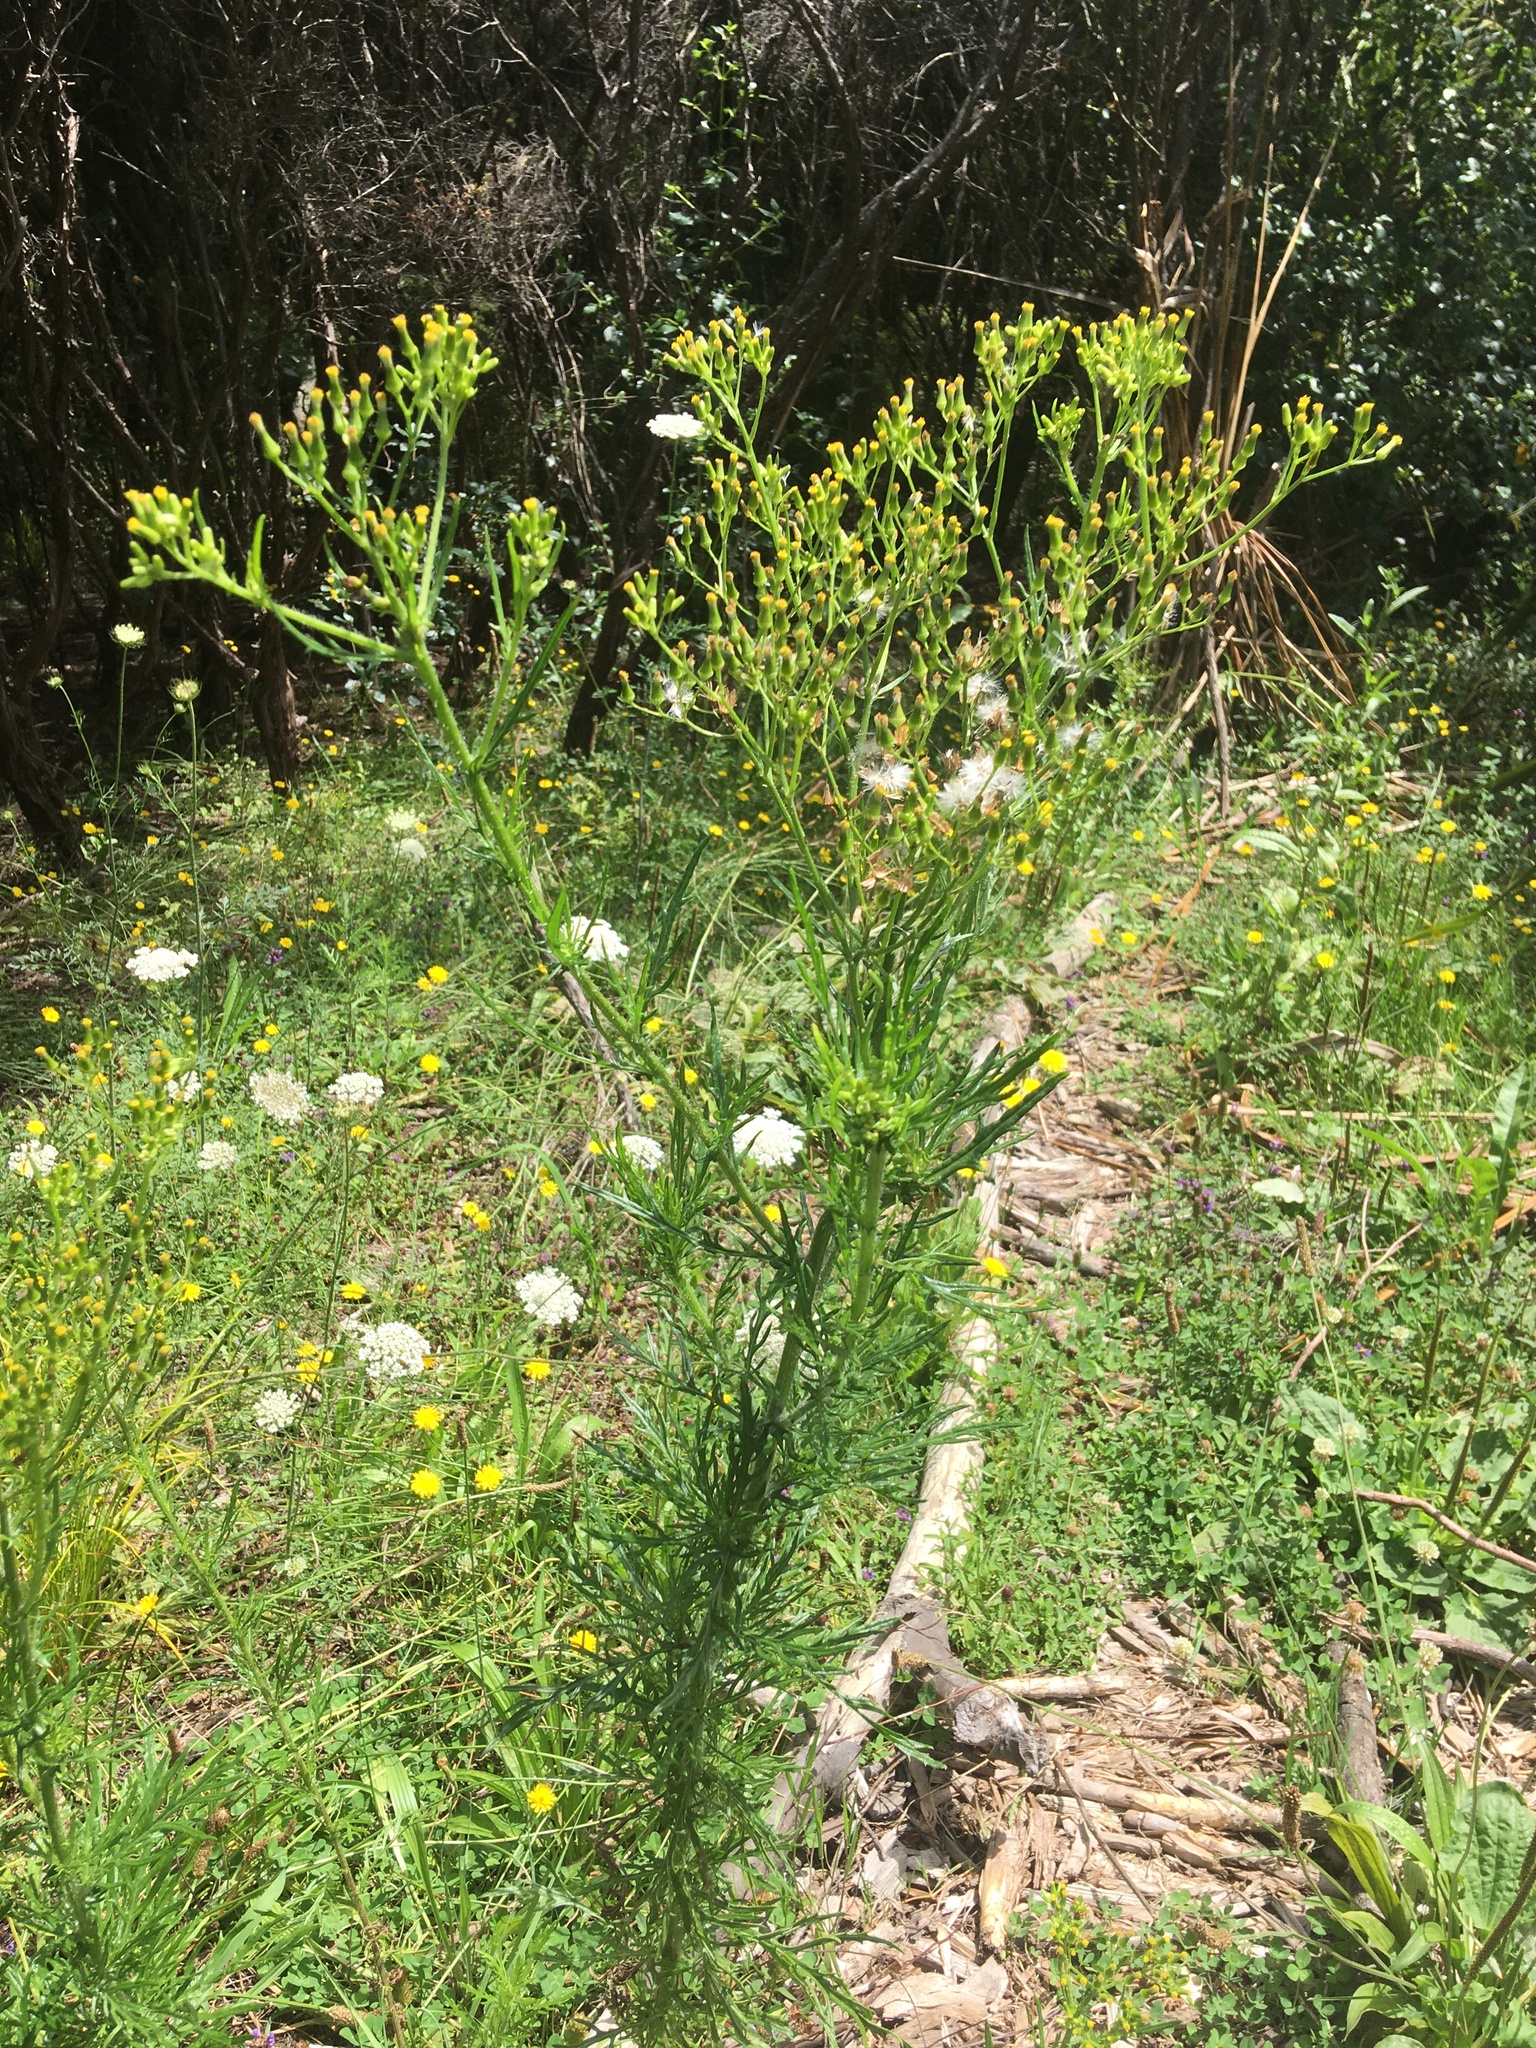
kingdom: Plantae
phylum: Tracheophyta
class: Magnoliopsida
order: Asterales
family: Asteraceae
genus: Senecio
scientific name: Senecio esleri
